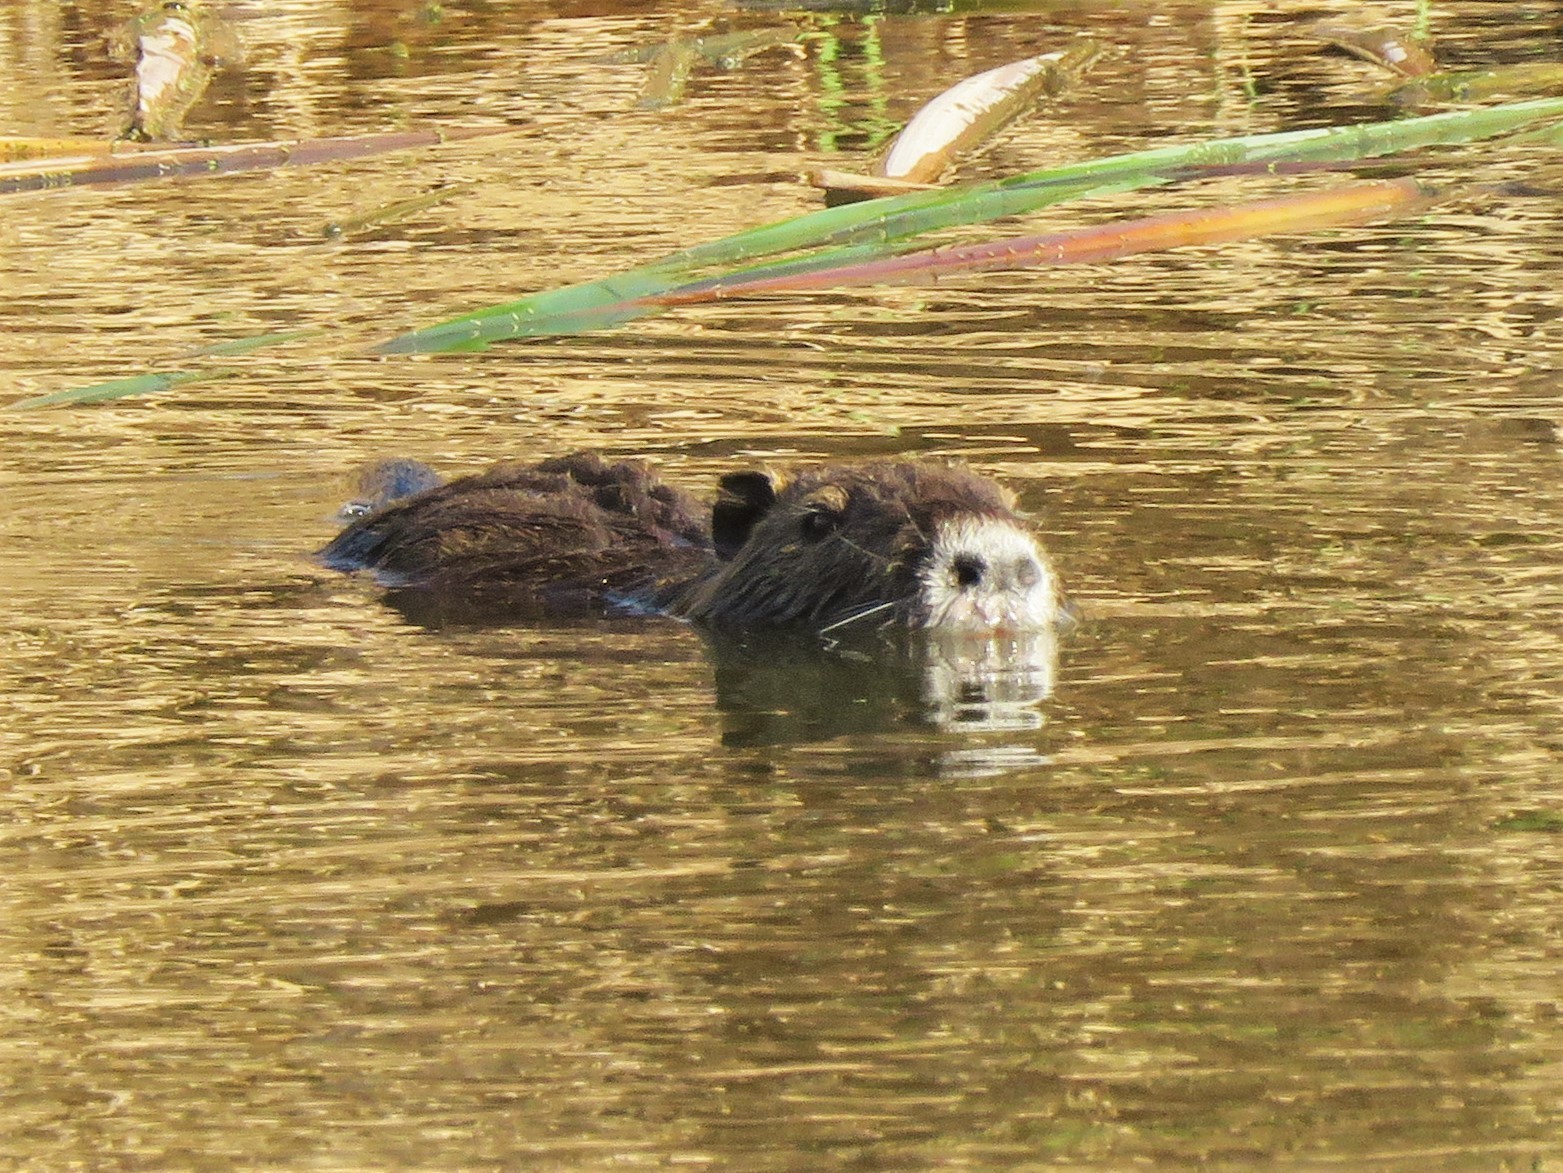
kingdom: Animalia
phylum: Chordata
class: Mammalia
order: Rodentia
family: Myocastoridae
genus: Myocastor
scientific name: Myocastor coypus
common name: Coypu
